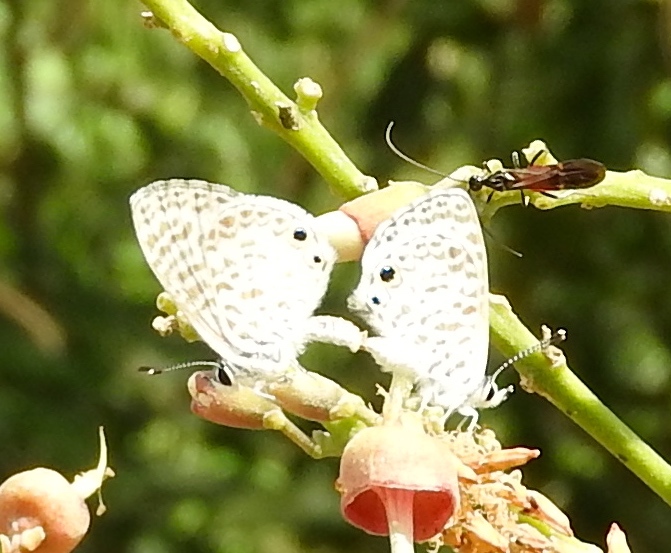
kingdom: Animalia
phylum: Arthropoda
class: Insecta
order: Lepidoptera
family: Lycaenidae
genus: Leptotes
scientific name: Leptotes cassius
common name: Cassius blue
